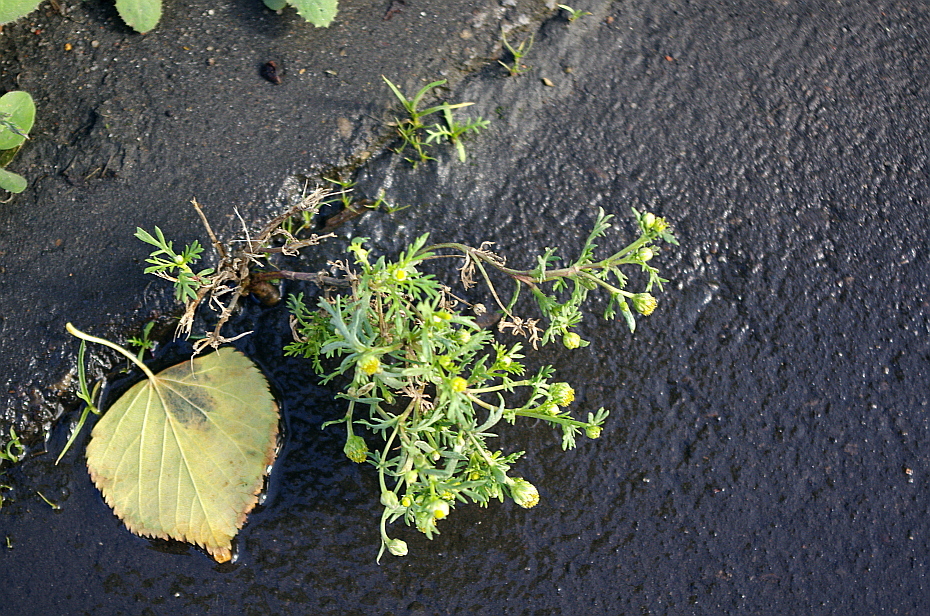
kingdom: Plantae
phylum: Tracheophyta
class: Magnoliopsida
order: Asterales
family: Asteraceae
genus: Matricaria
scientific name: Matricaria discoidea
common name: Disc mayweed
